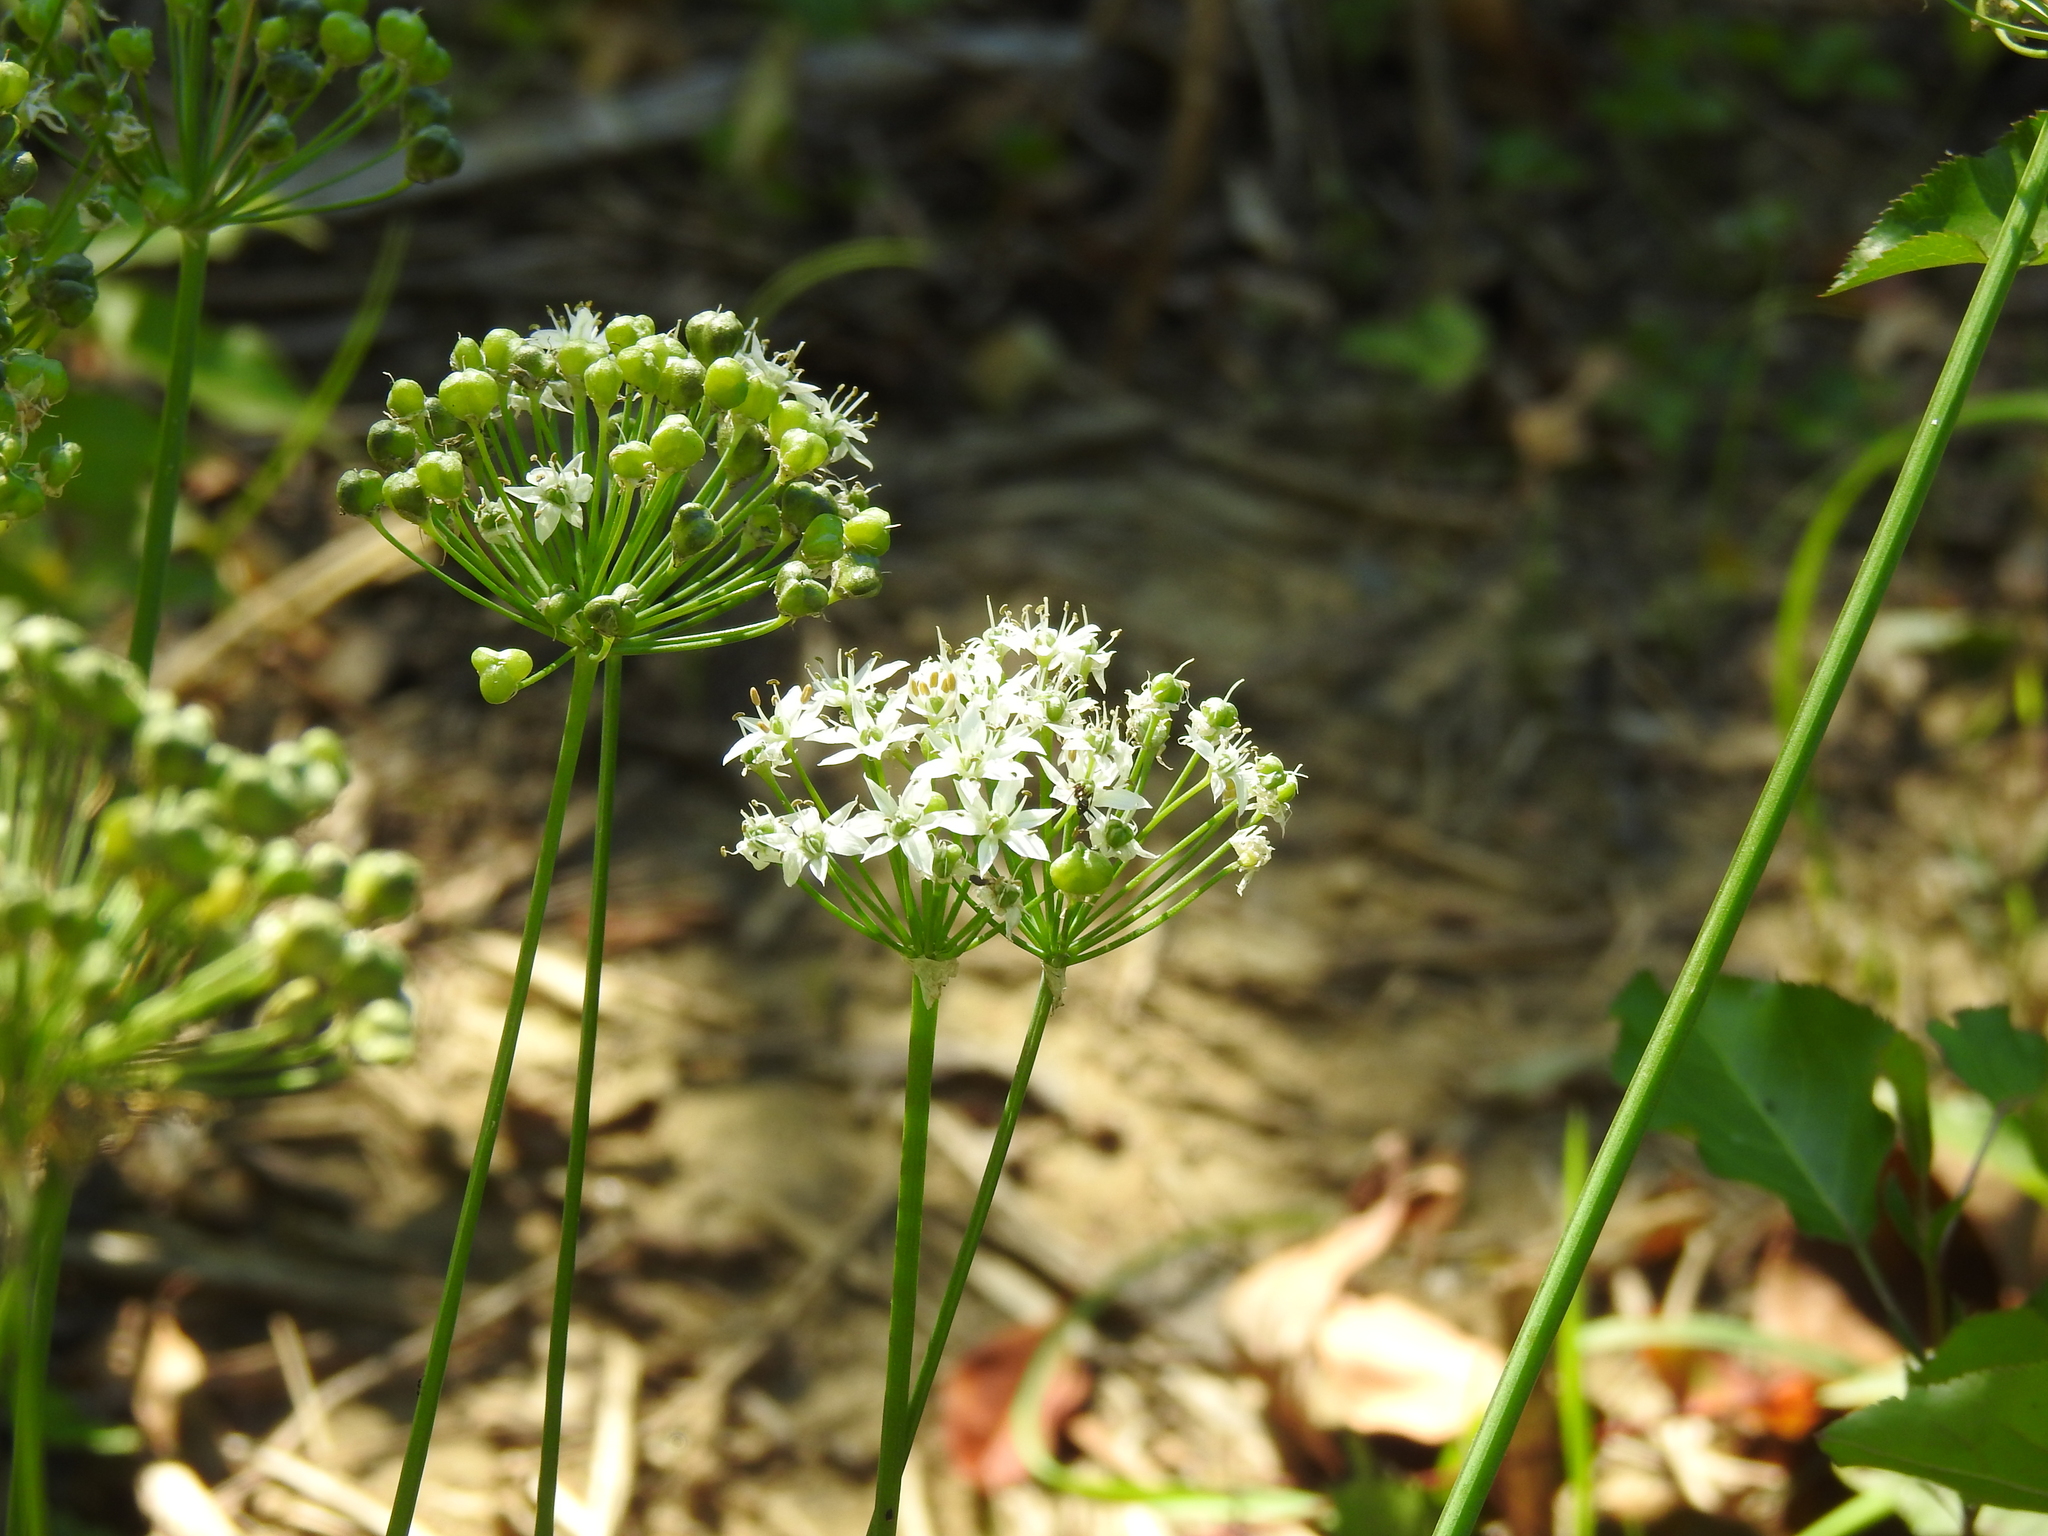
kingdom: Plantae
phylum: Tracheophyta
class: Liliopsida
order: Asparagales
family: Amaryllidaceae
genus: Allium
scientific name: Allium tuberosum
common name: Chinese chives
